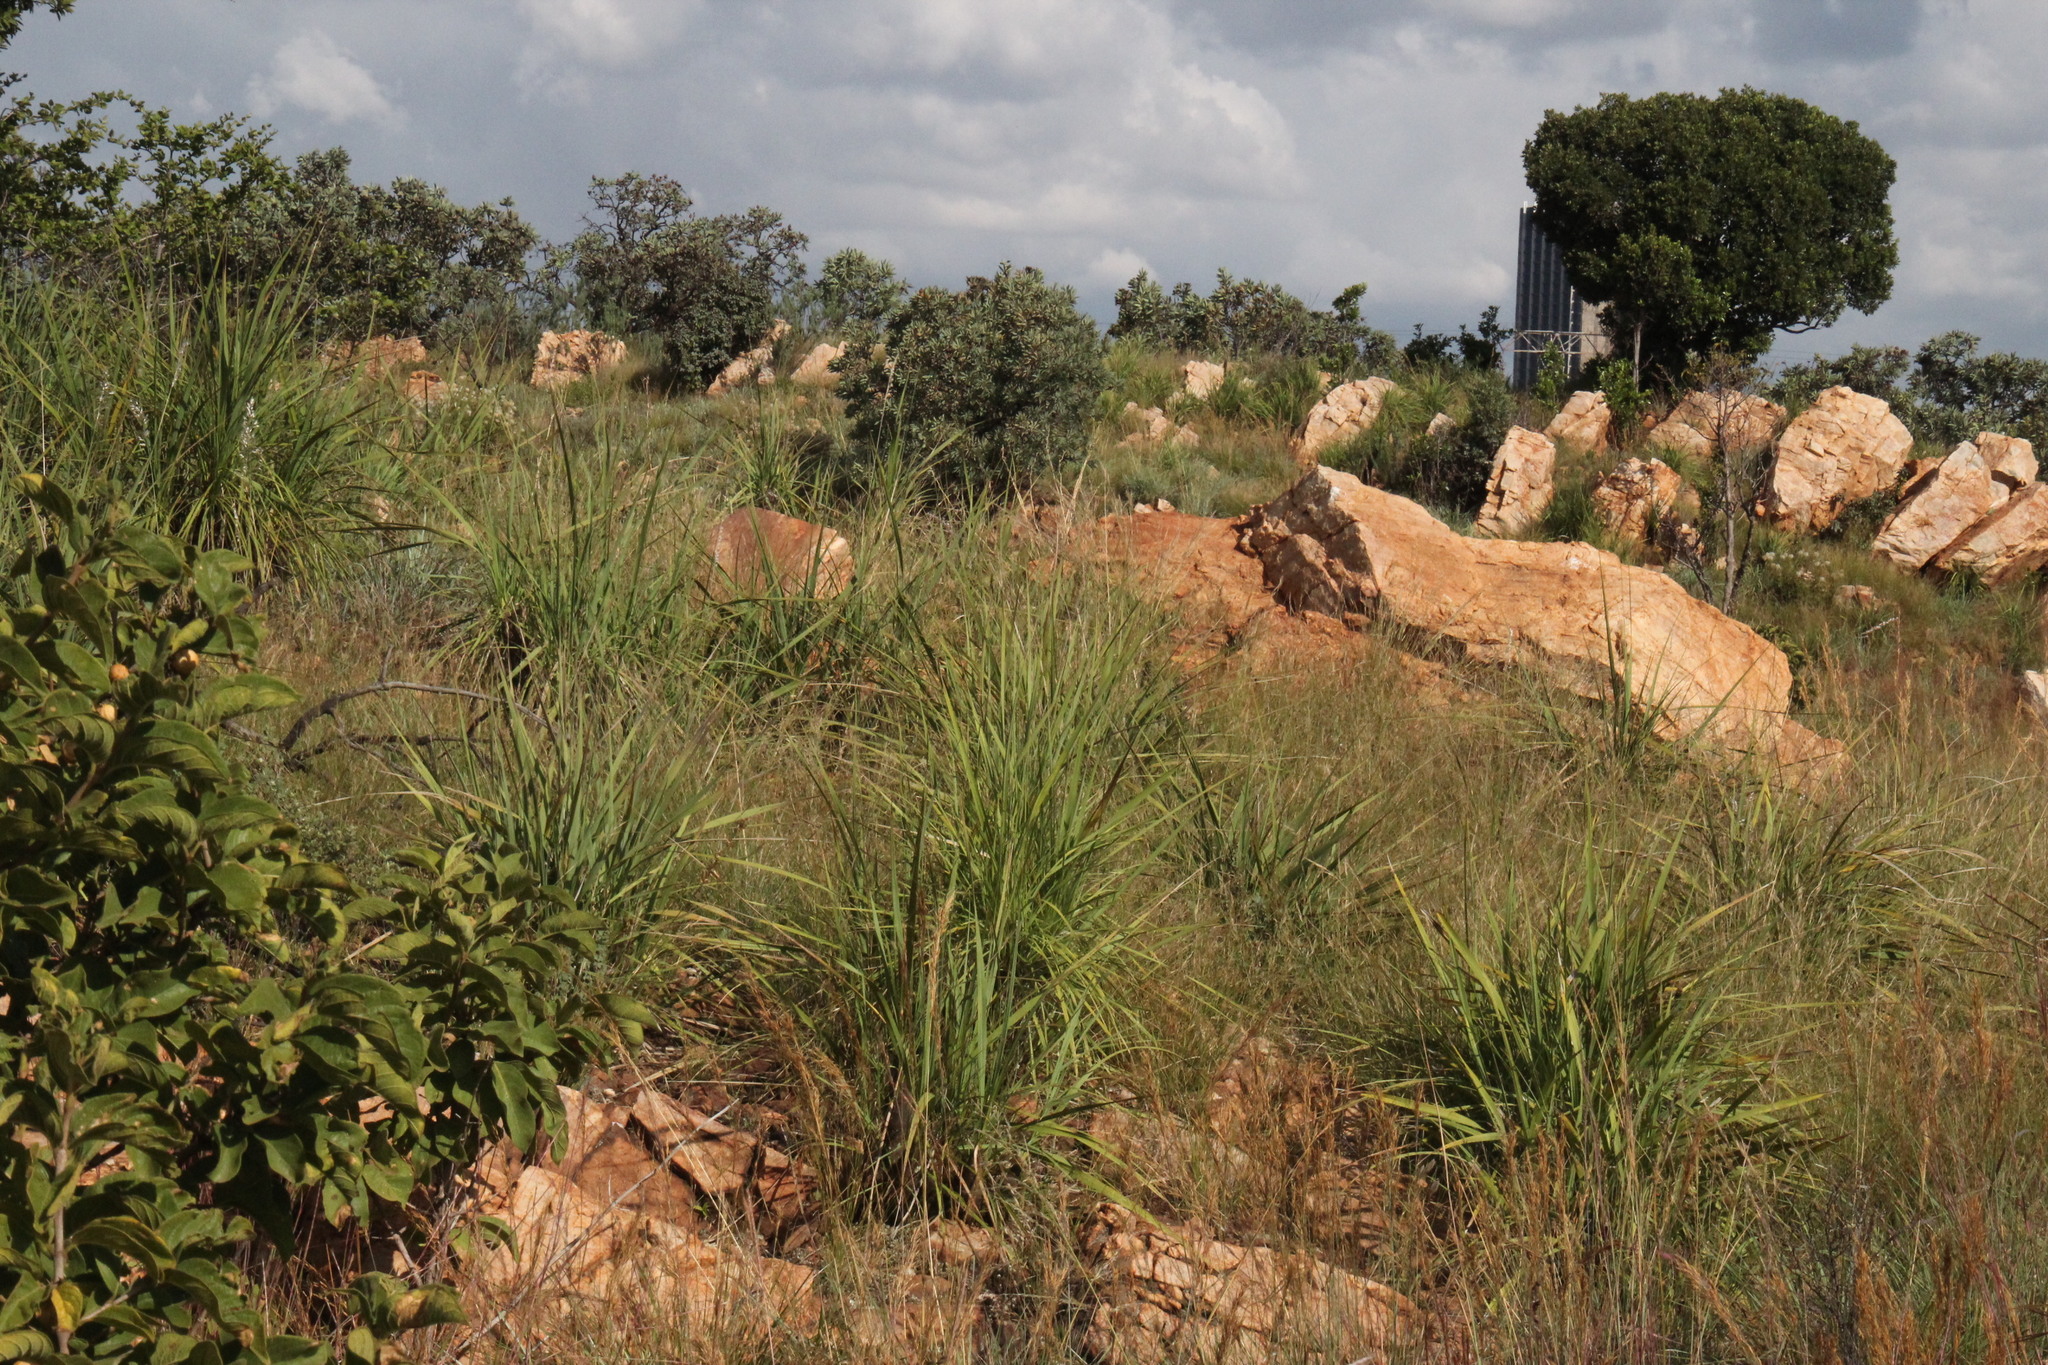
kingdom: Plantae
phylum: Tracheophyta
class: Liliopsida
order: Pandanales
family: Velloziaceae
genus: Xerophyta
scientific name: Xerophyta retinervis
